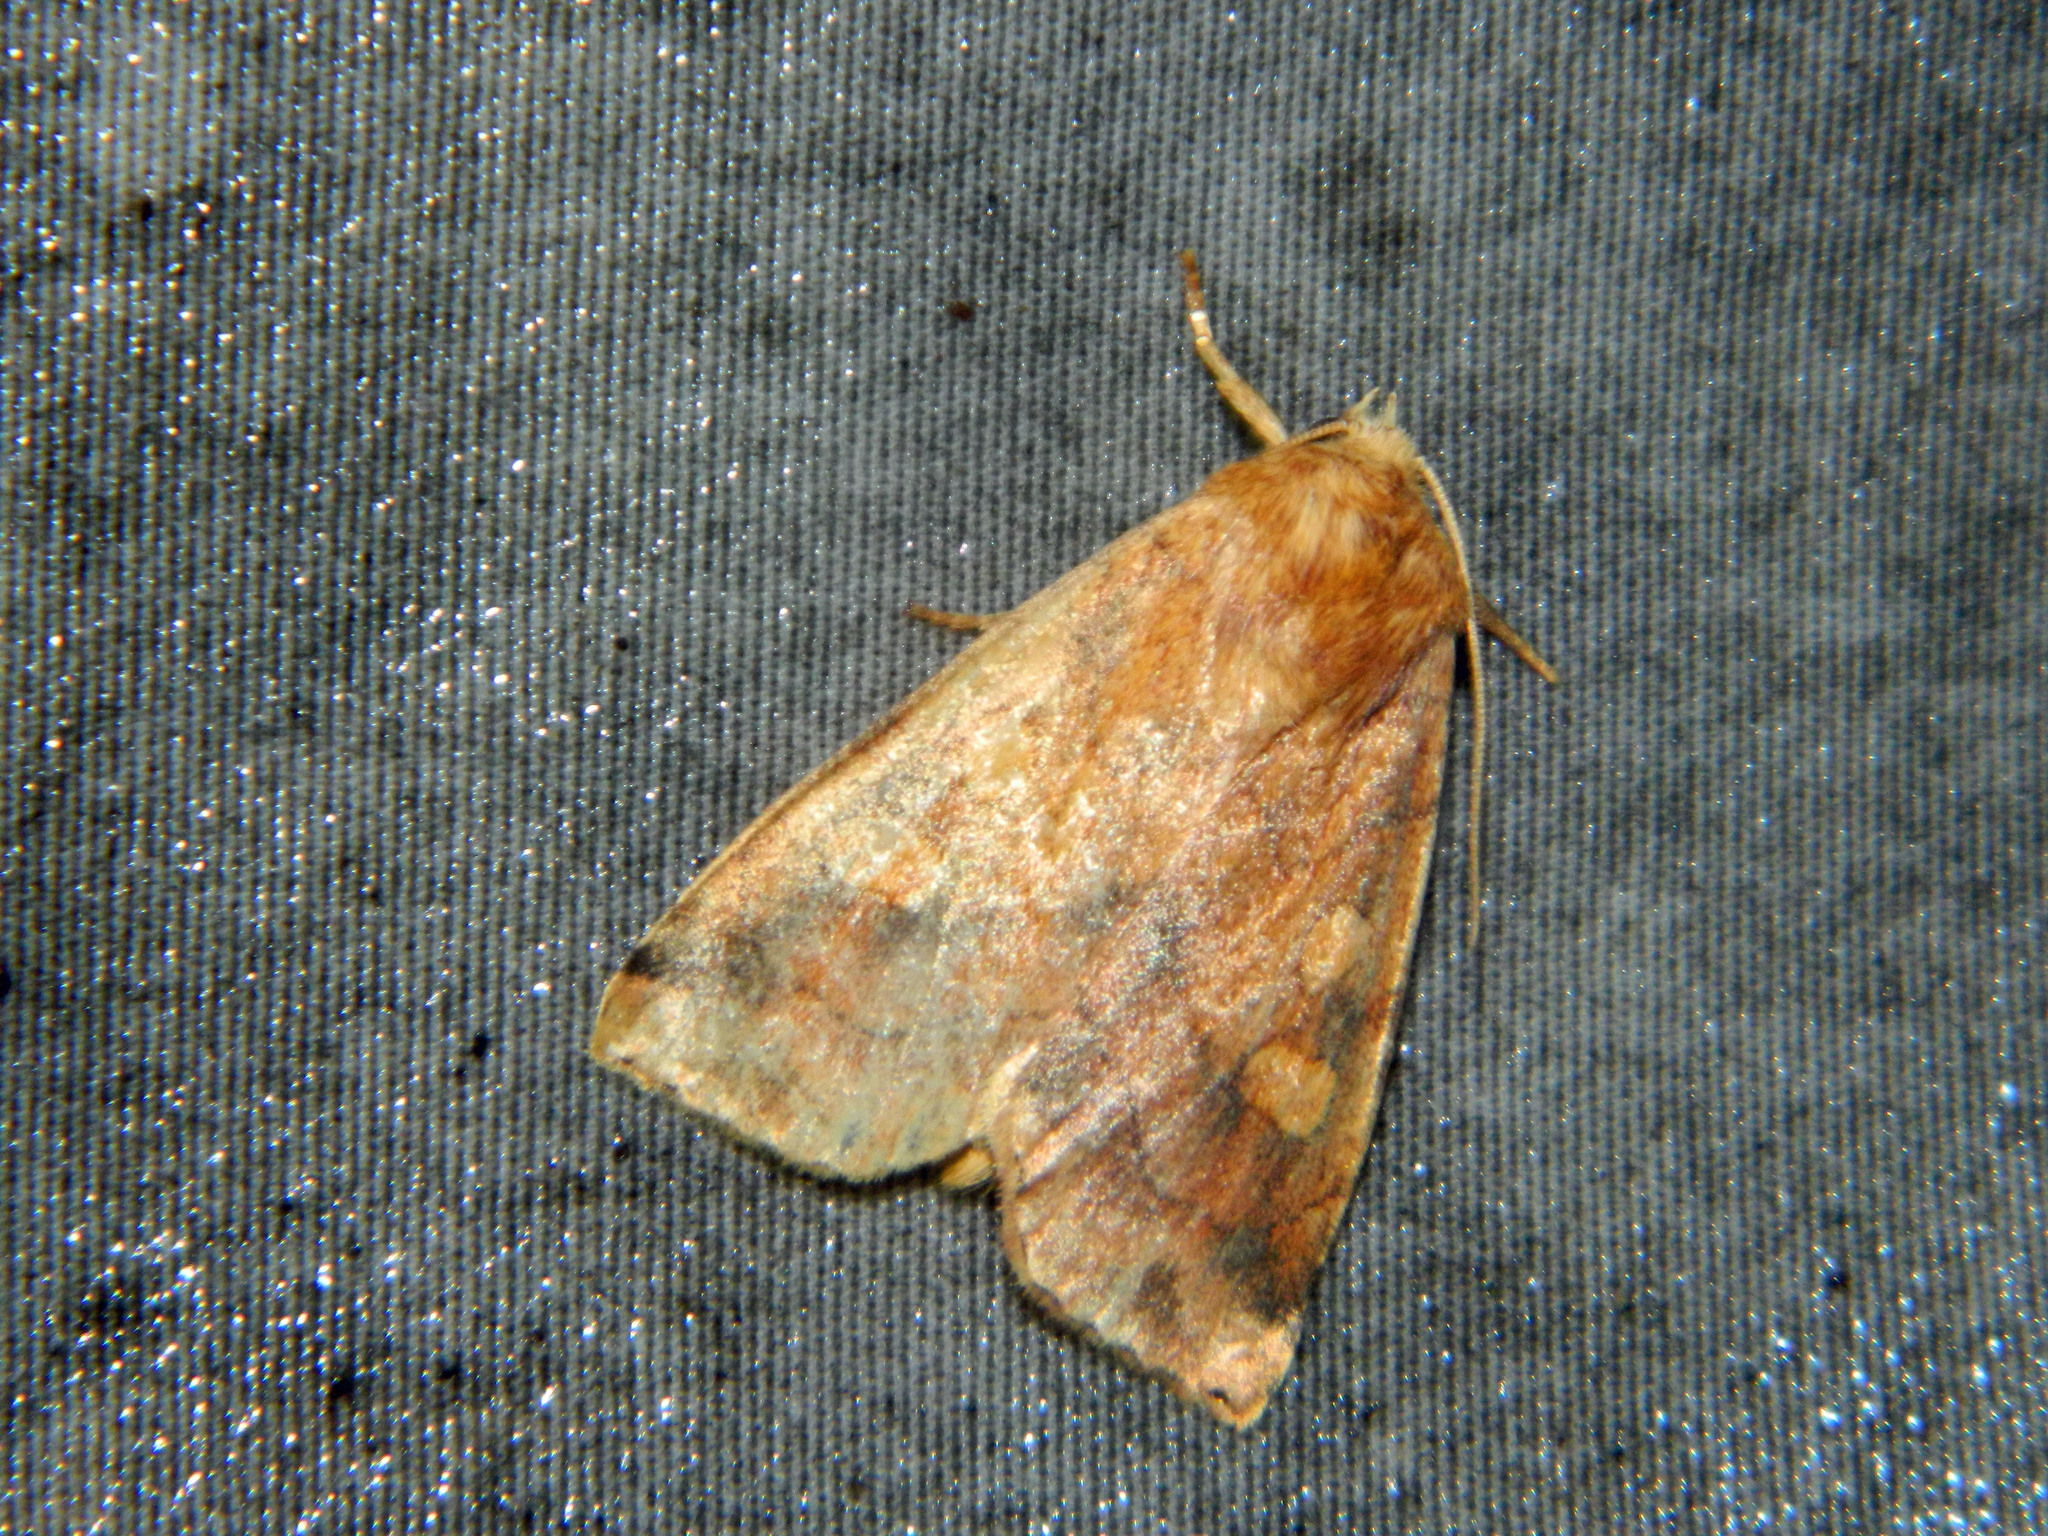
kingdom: Animalia
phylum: Arthropoda
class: Insecta
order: Lepidoptera
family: Noctuidae
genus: Enargia
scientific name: Enargia decolor
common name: Aspen twoleaf tier moth
